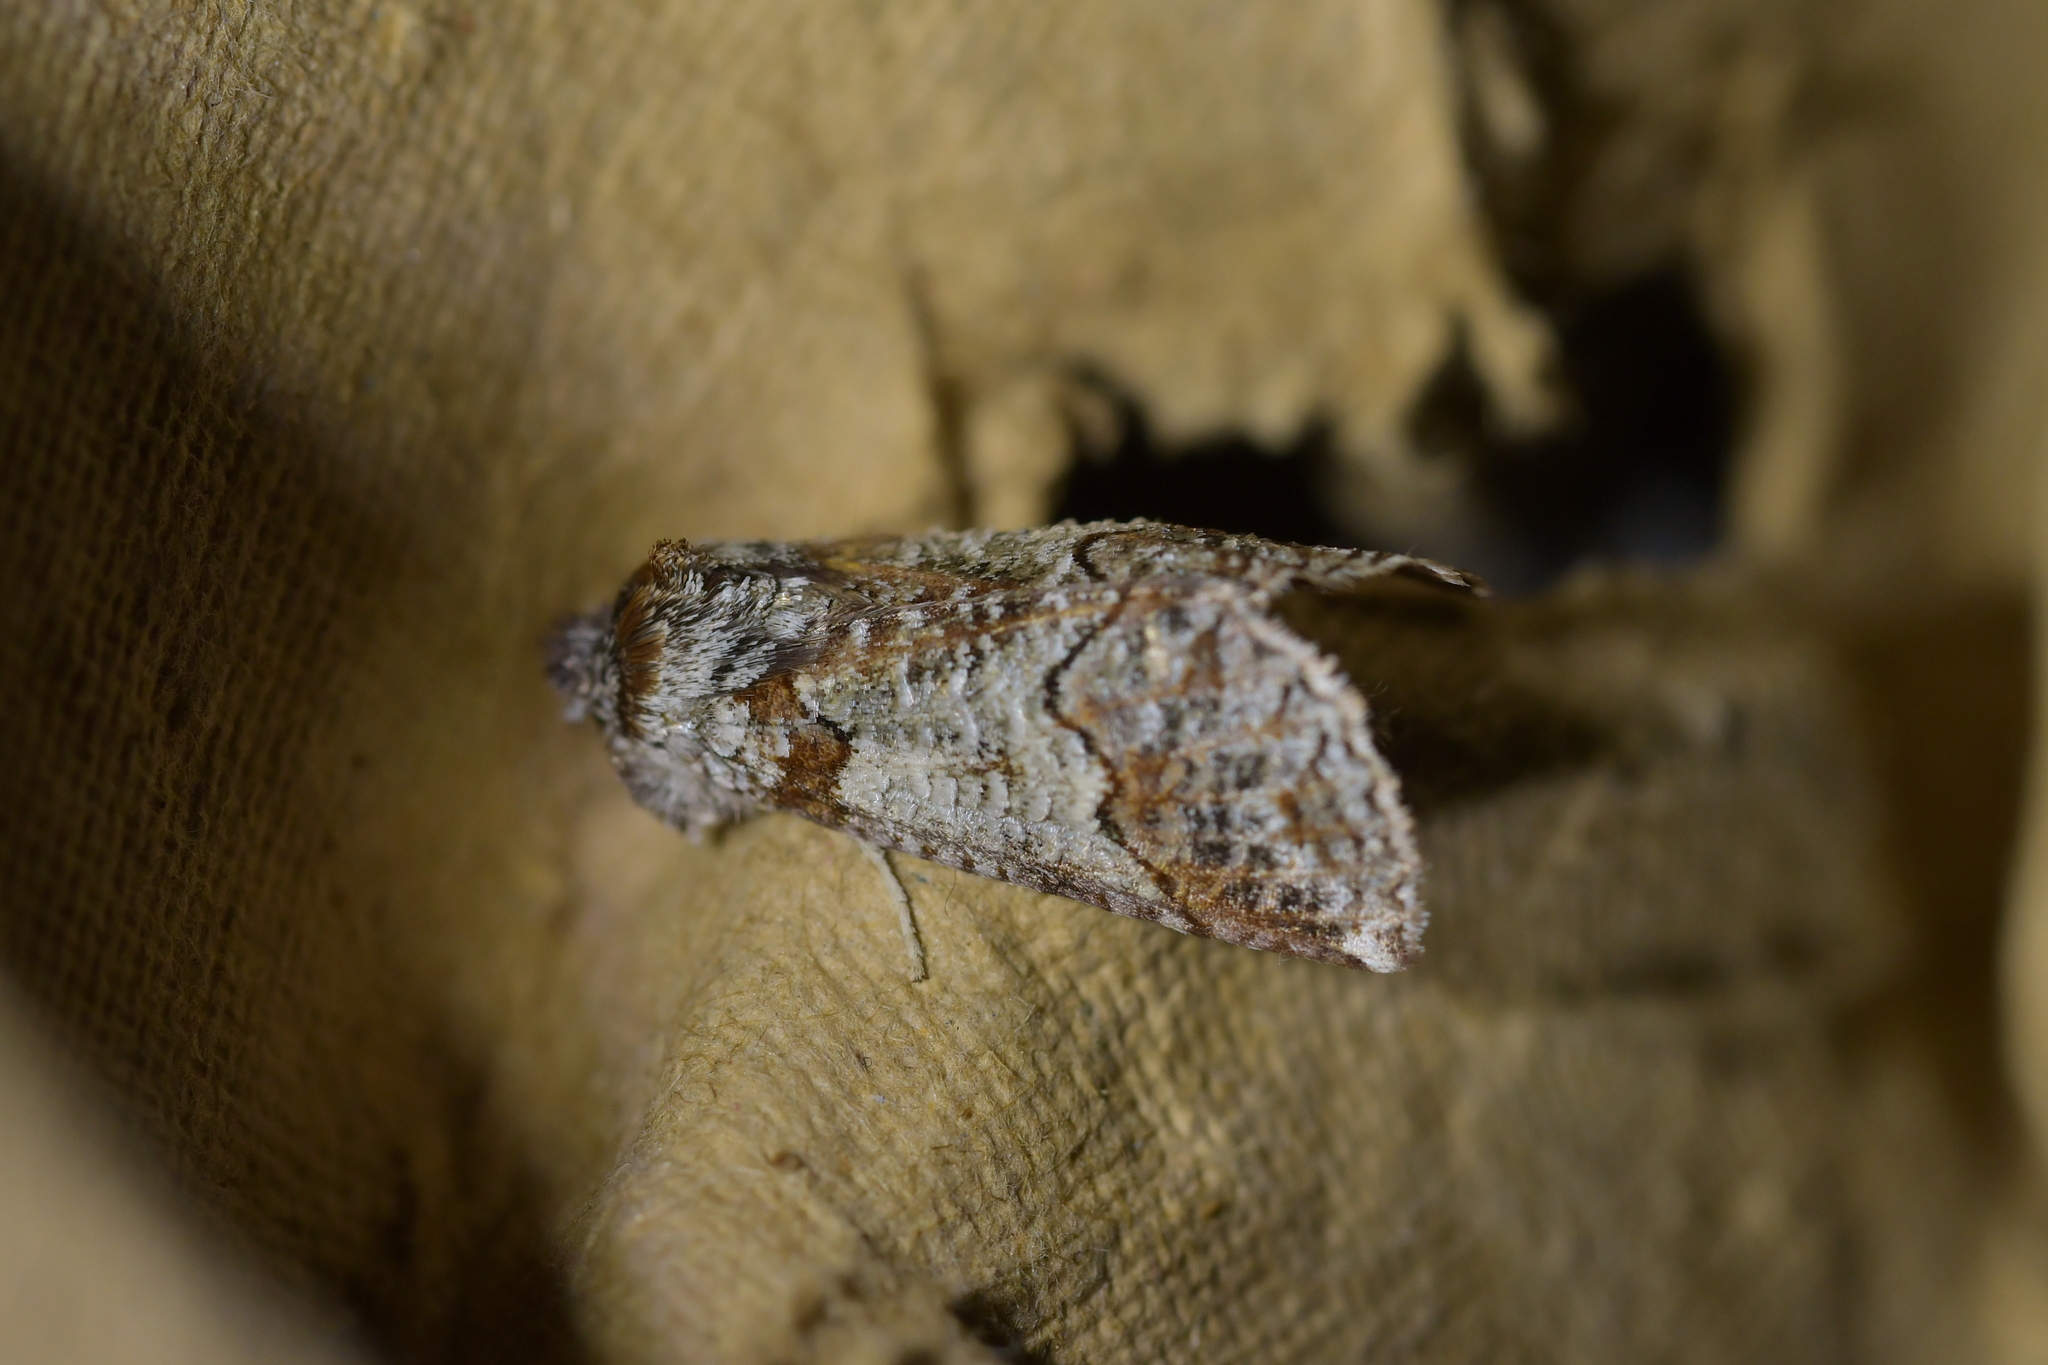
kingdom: Animalia
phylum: Arthropoda
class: Insecta
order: Lepidoptera
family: Geometridae
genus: Declana
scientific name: Declana
